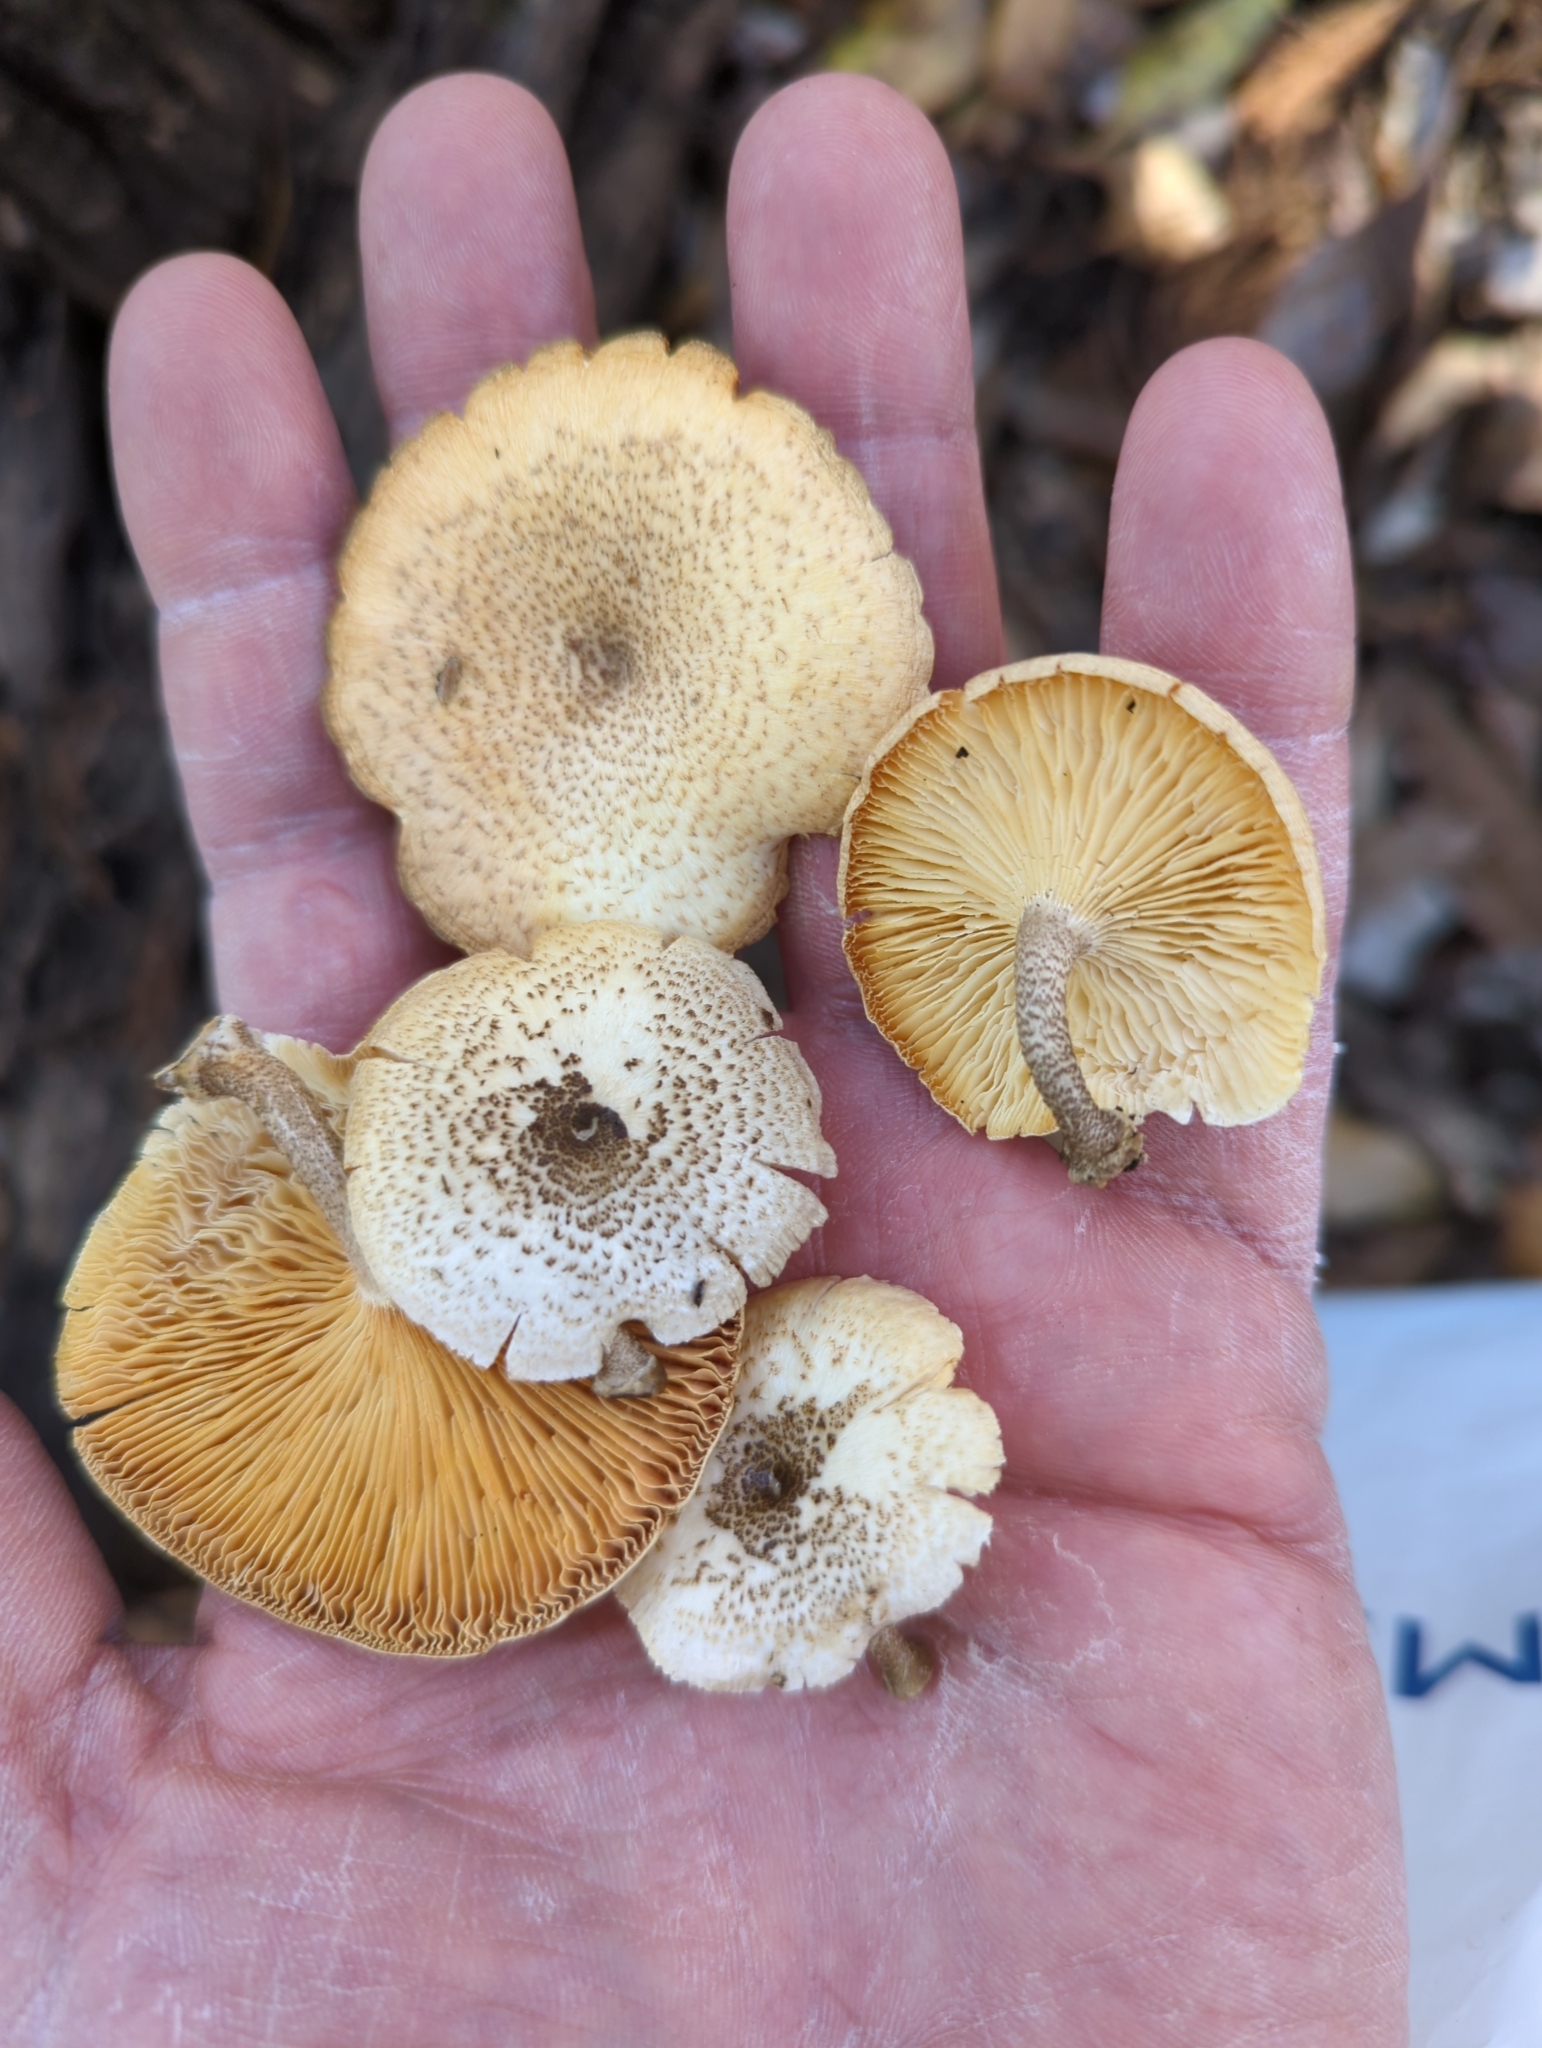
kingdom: Fungi
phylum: Basidiomycota
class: Agaricomycetes
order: Polyporales
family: Polyporaceae
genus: Lentinus
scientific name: Lentinus tigrinus
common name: Tiger sawgill
